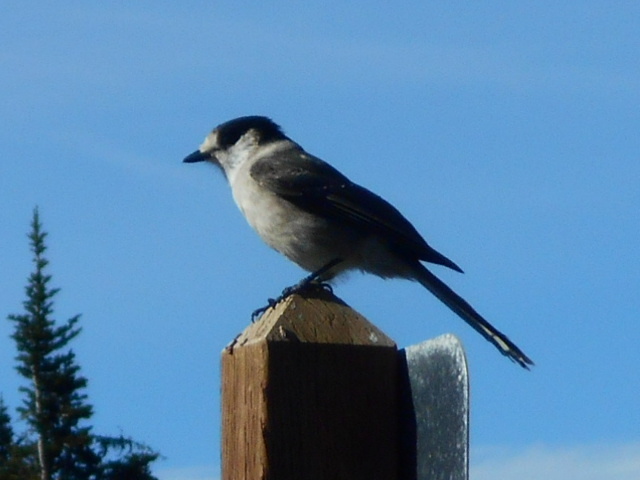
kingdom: Animalia
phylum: Chordata
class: Aves
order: Passeriformes
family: Corvidae
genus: Perisoreus
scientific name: Perisoreus canadensis
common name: Gray jay
